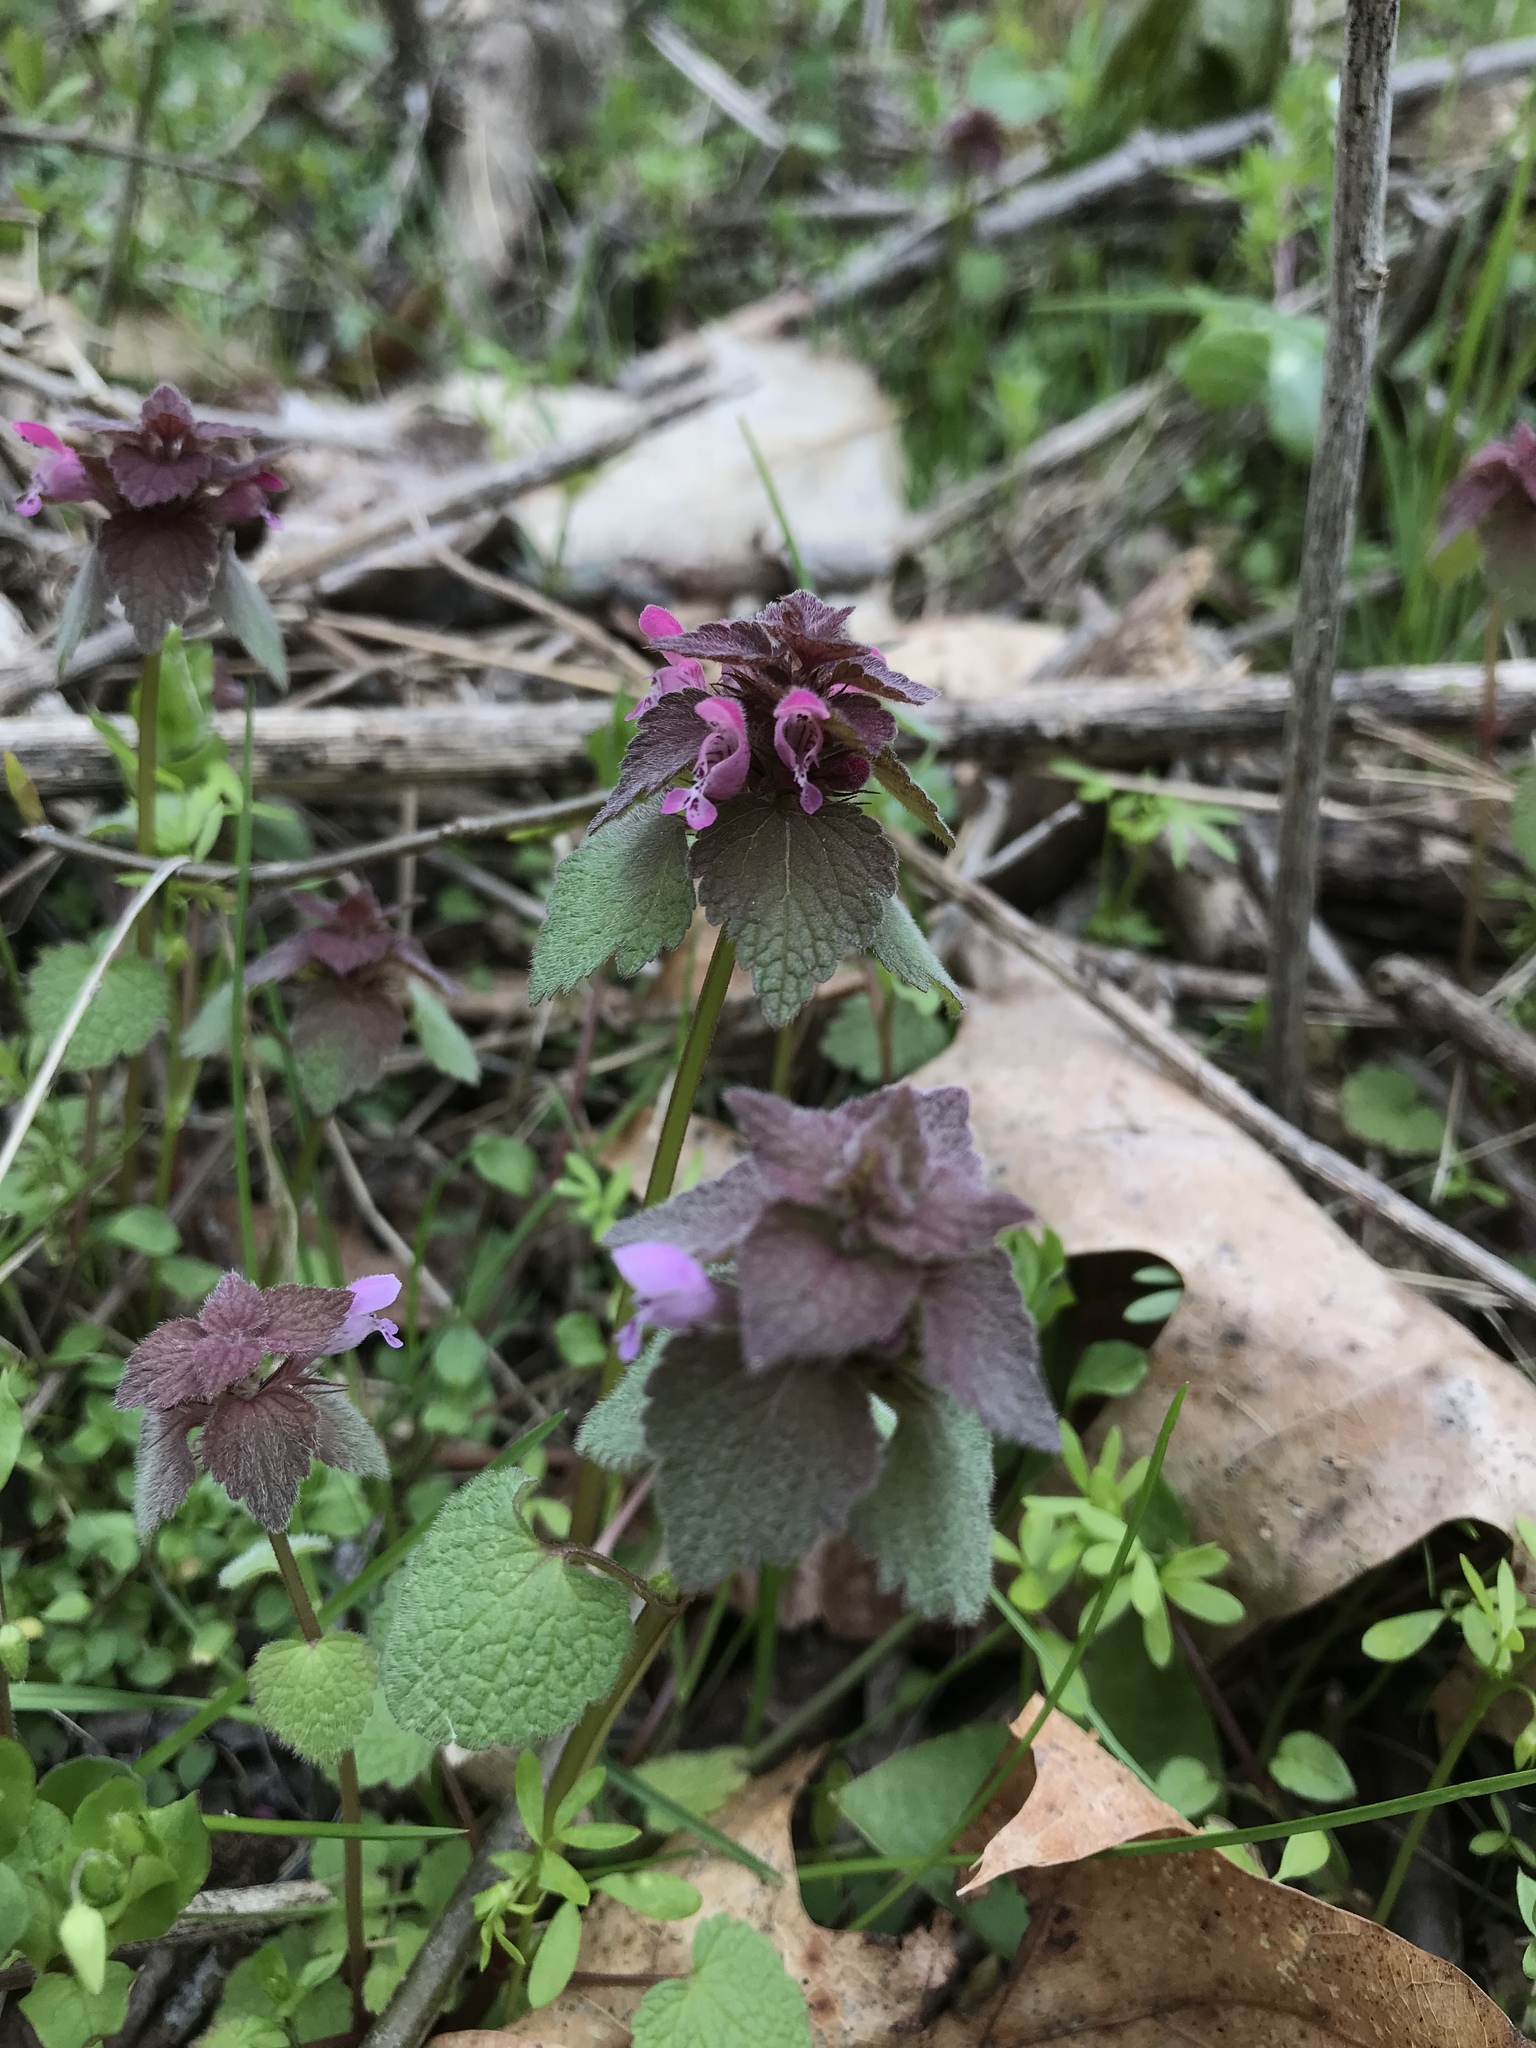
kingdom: Plantae
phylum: Tracheophyta
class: Magnoliopsida
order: Lamiales
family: Lamiaceae
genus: Lamium
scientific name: Lamium purpureum
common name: Red dead-nettle
